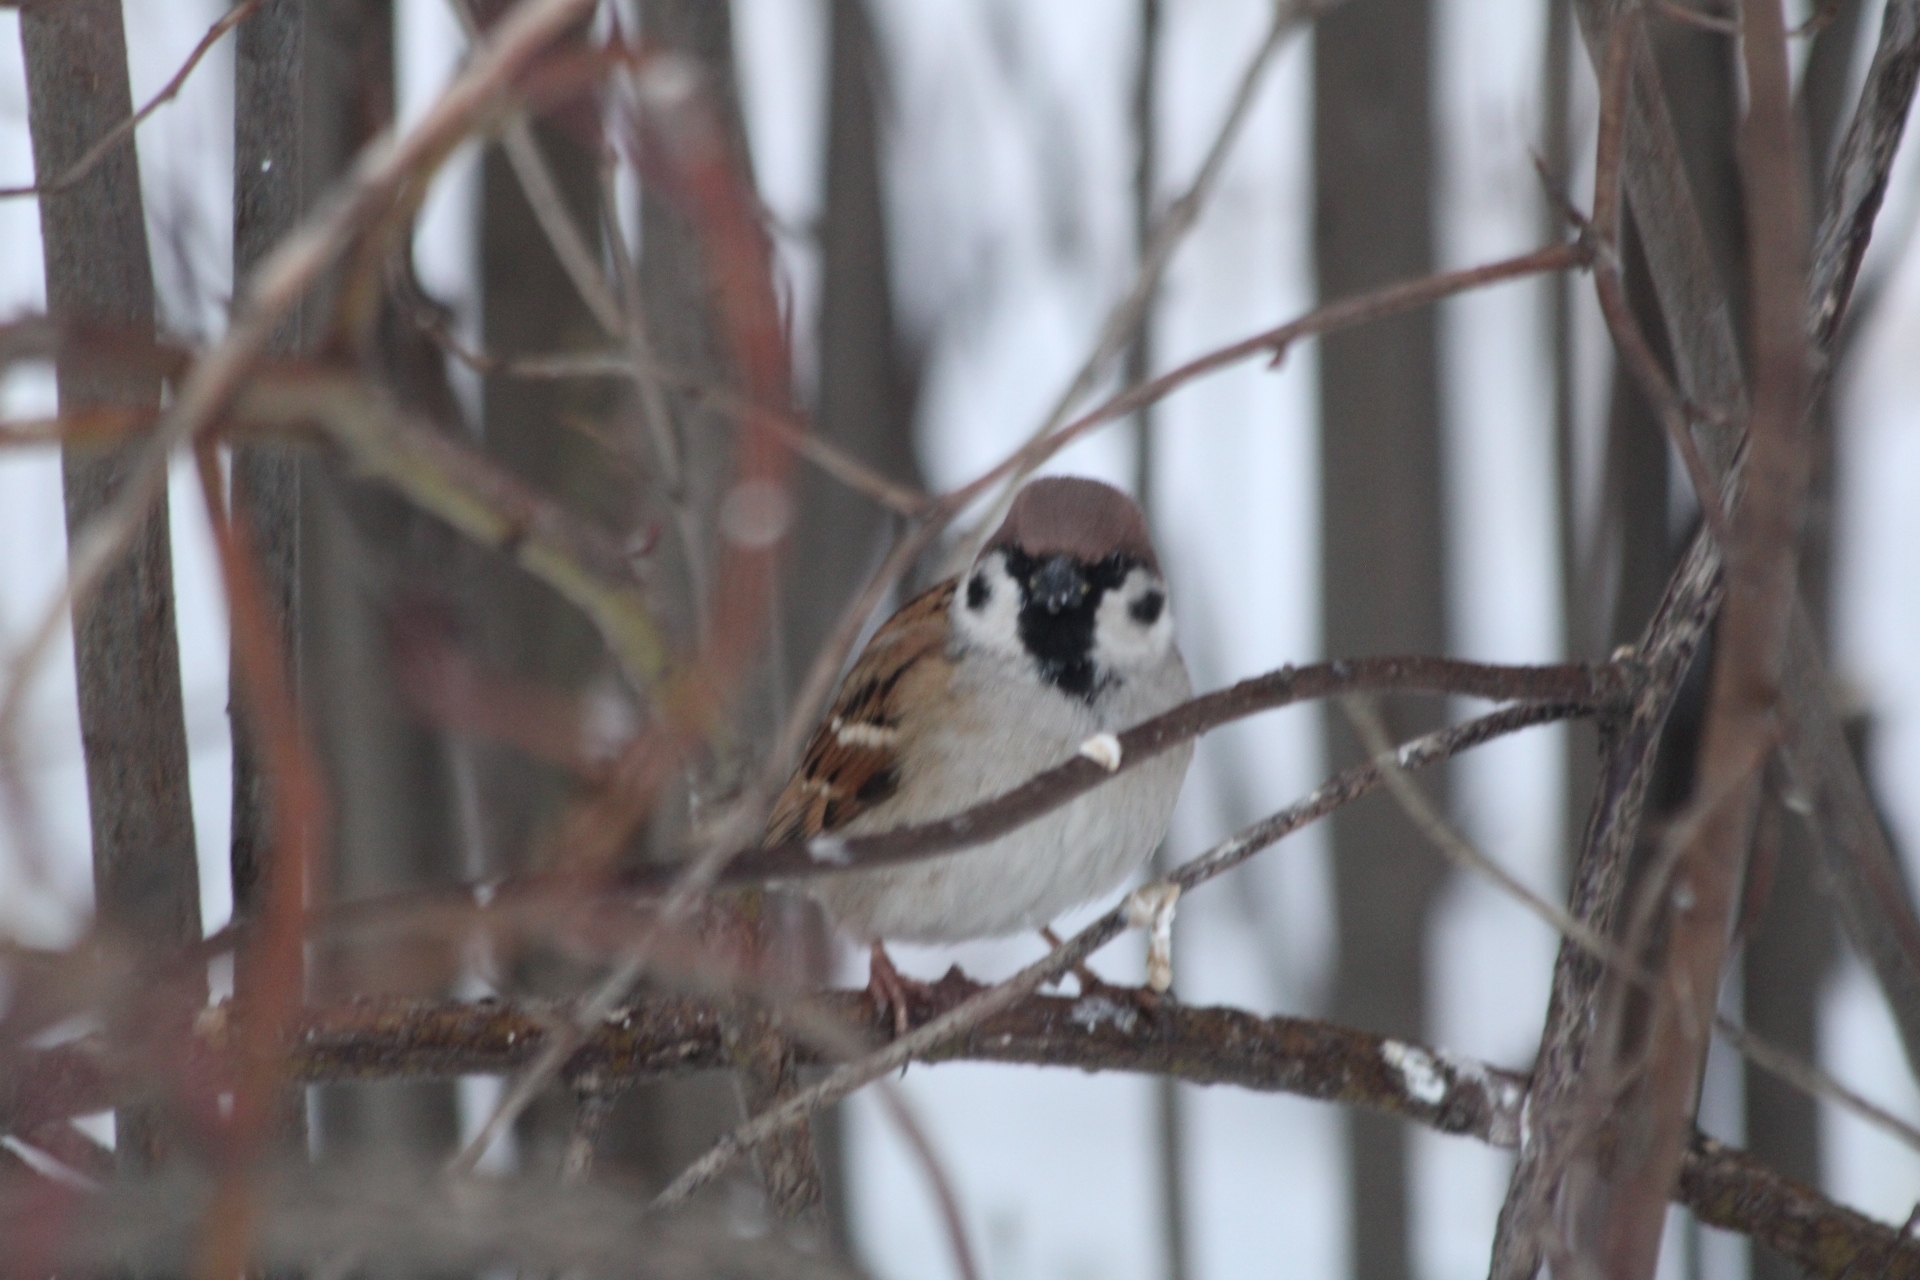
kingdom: Animalia
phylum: Chordata
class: Aves
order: Passeriformes
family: Passeridae
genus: Passer
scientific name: Passer montanus
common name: Eurasian tree sparrow
